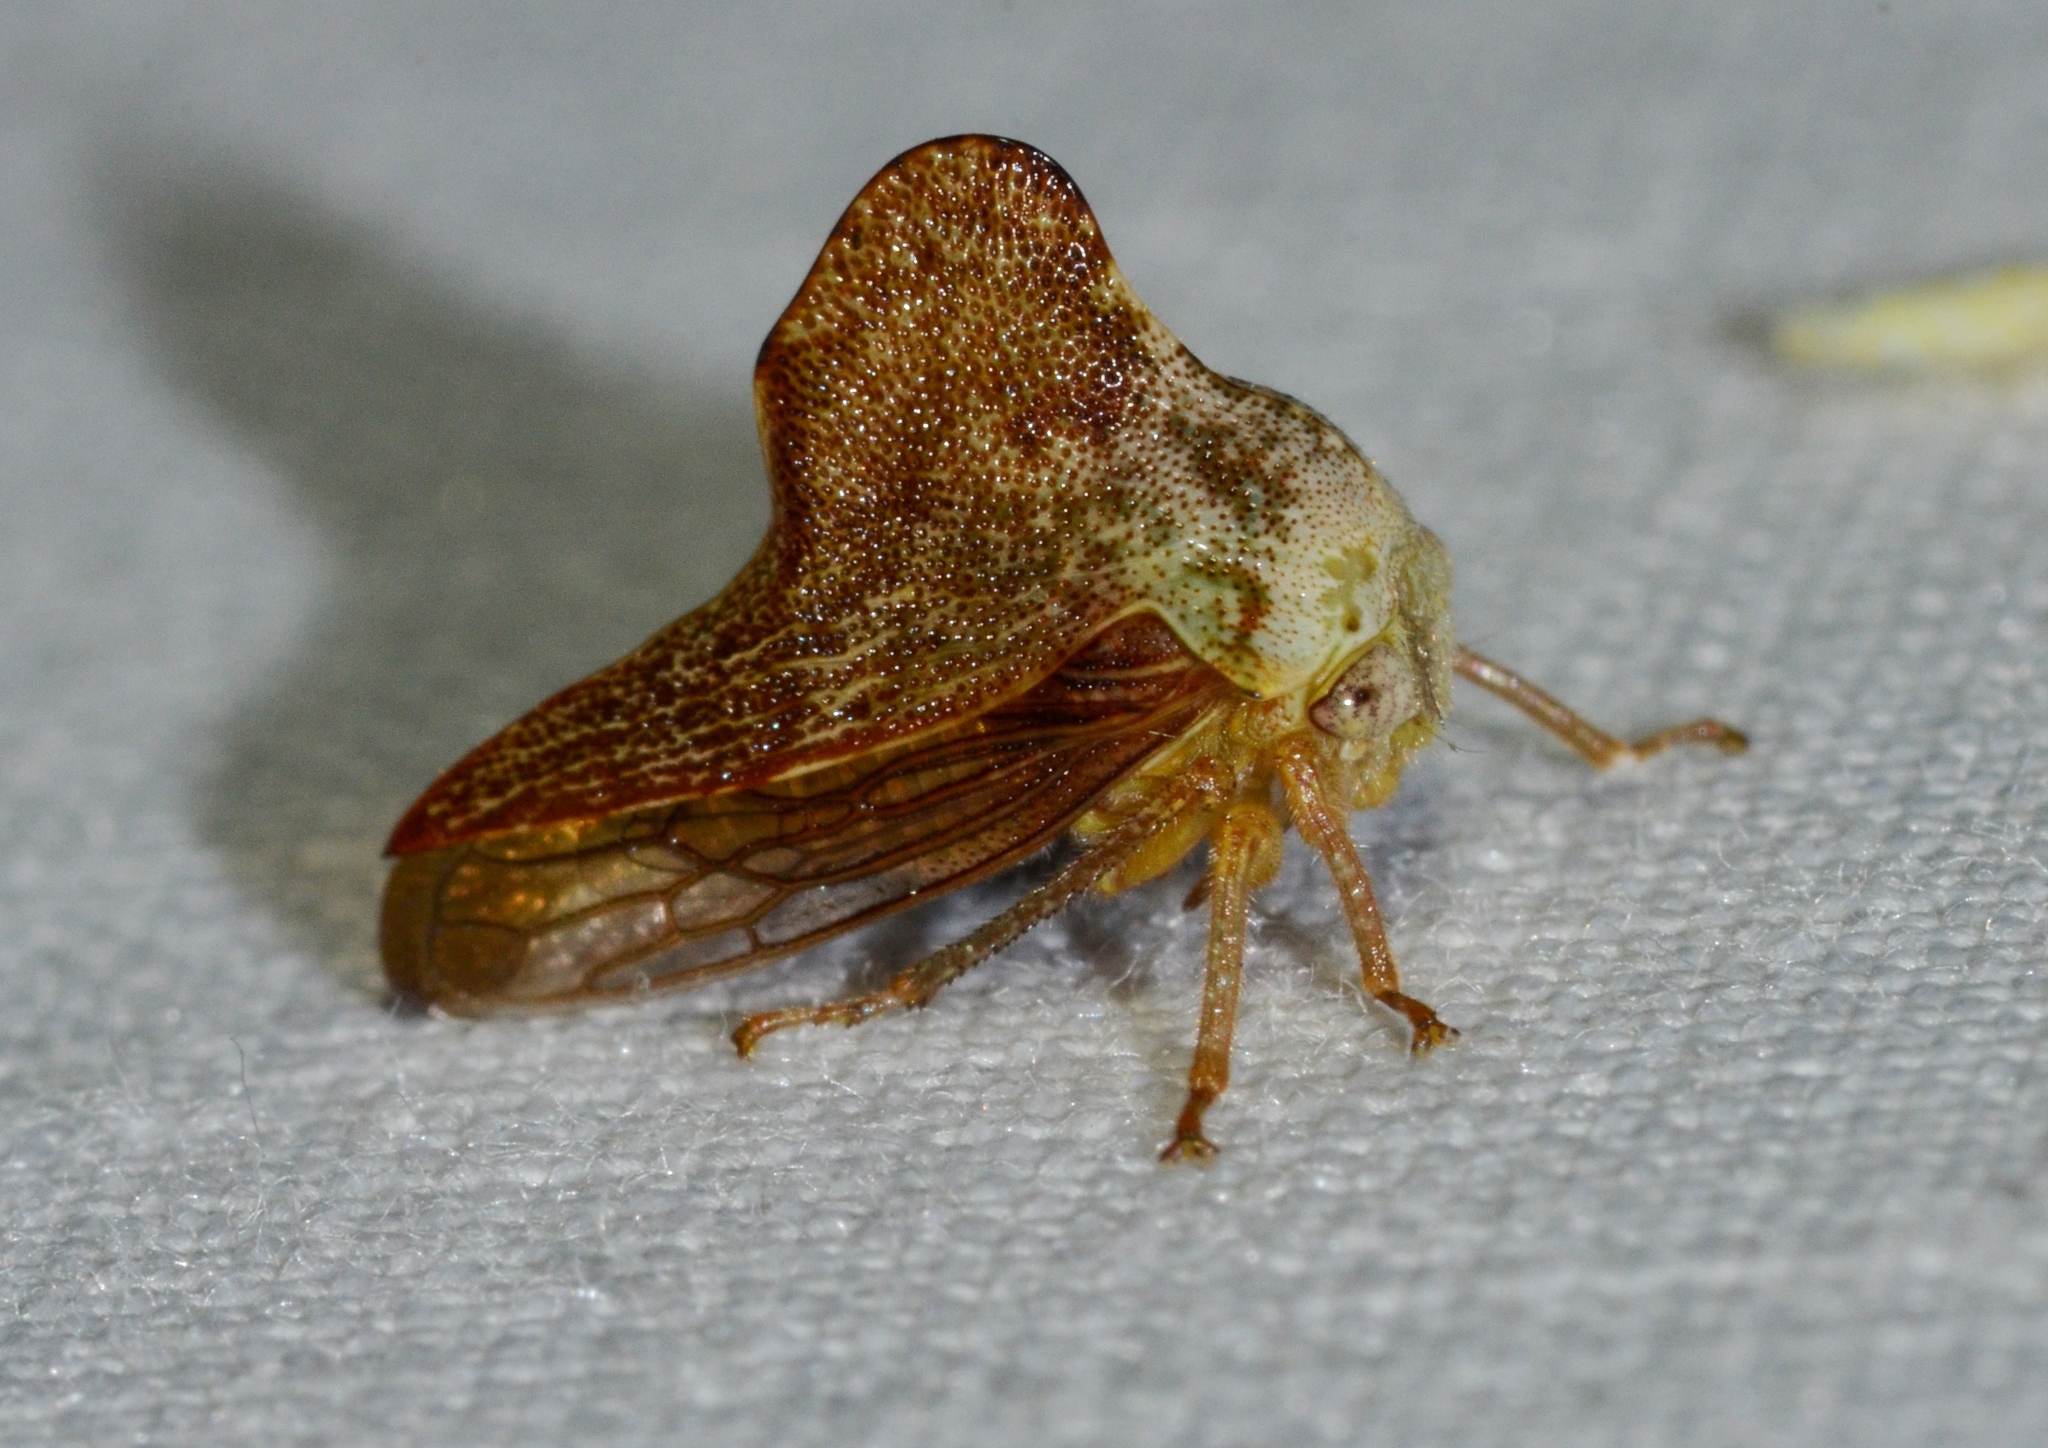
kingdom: Animalia
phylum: Arthropoda
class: Insecta
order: Hemiptera
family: Membracidae
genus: Telamona
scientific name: Telamona collina
